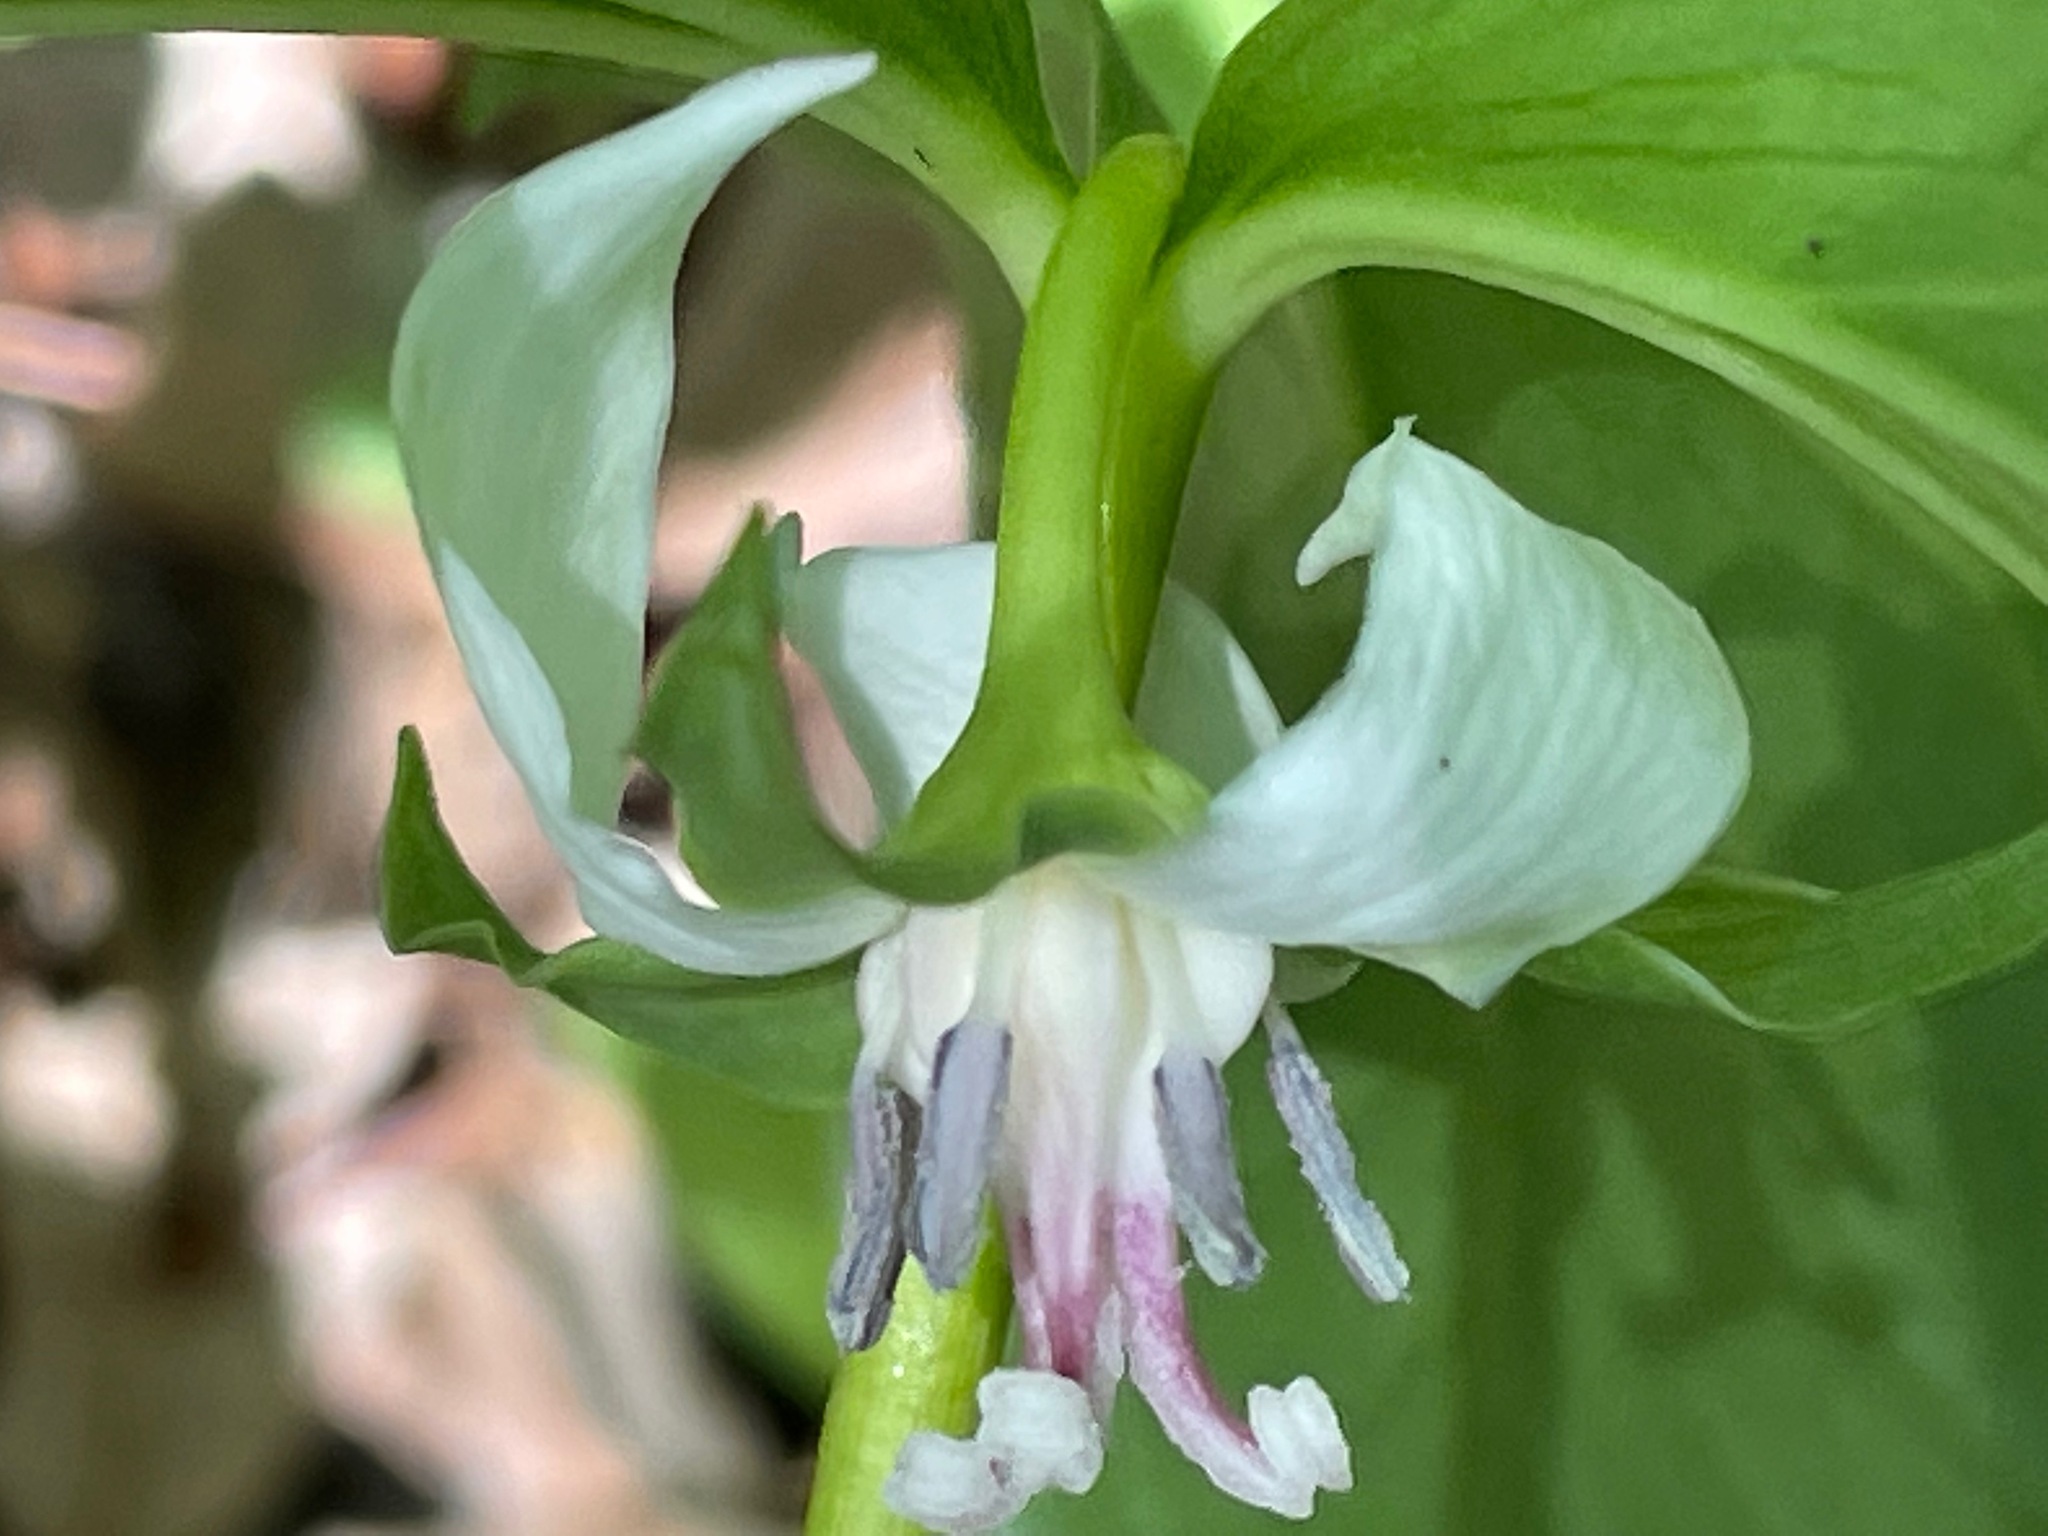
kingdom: Plantae
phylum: Tracheophyta
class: Liliopsida
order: Liliales
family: Melanthiaceae
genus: Trillium
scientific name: Trillium cernuum
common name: Nodding trillium
